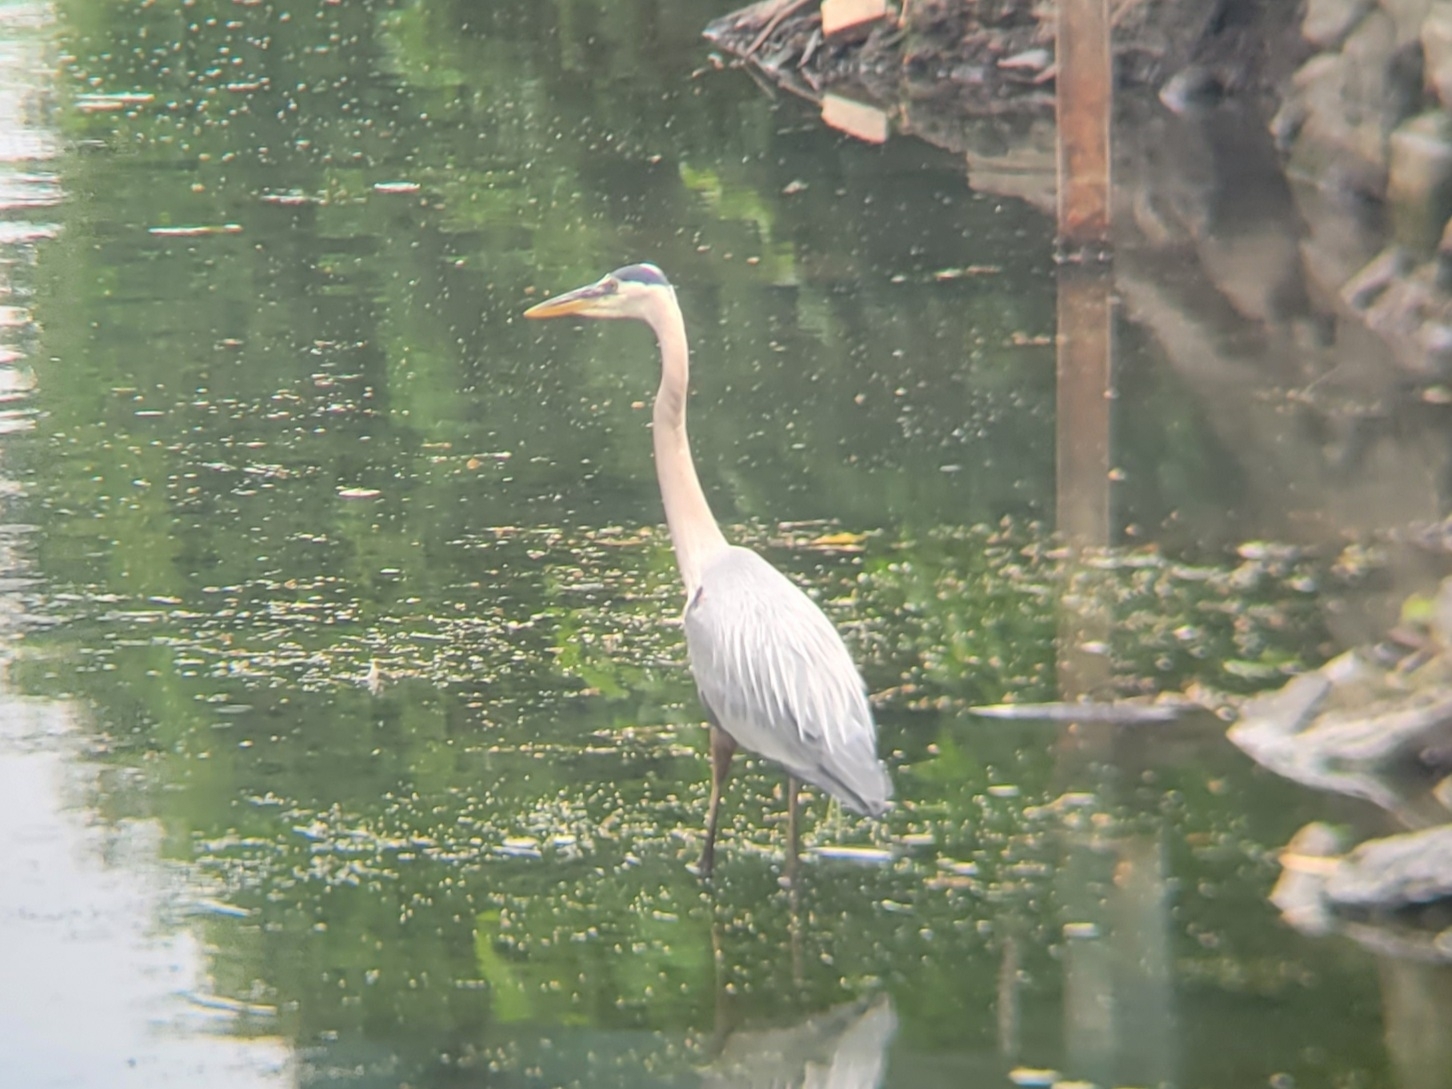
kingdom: Animalia
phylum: Chordata
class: Aves
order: Pelecaniformes
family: Ardeidae
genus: Ardea
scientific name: Ardea herodias
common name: Great blue heron
